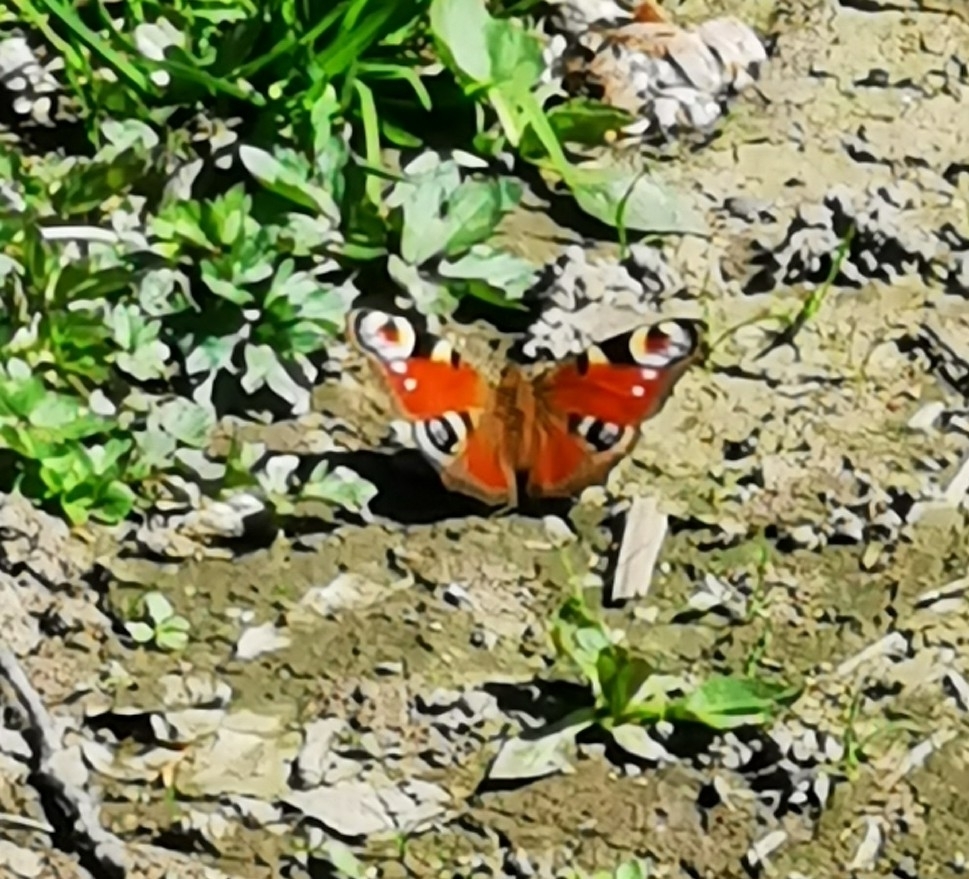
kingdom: Animalia
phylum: Arthropoda
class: Insecta
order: Lepidoptera
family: Nymphalidae
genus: Aglais
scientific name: Aglais io
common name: Peacock
